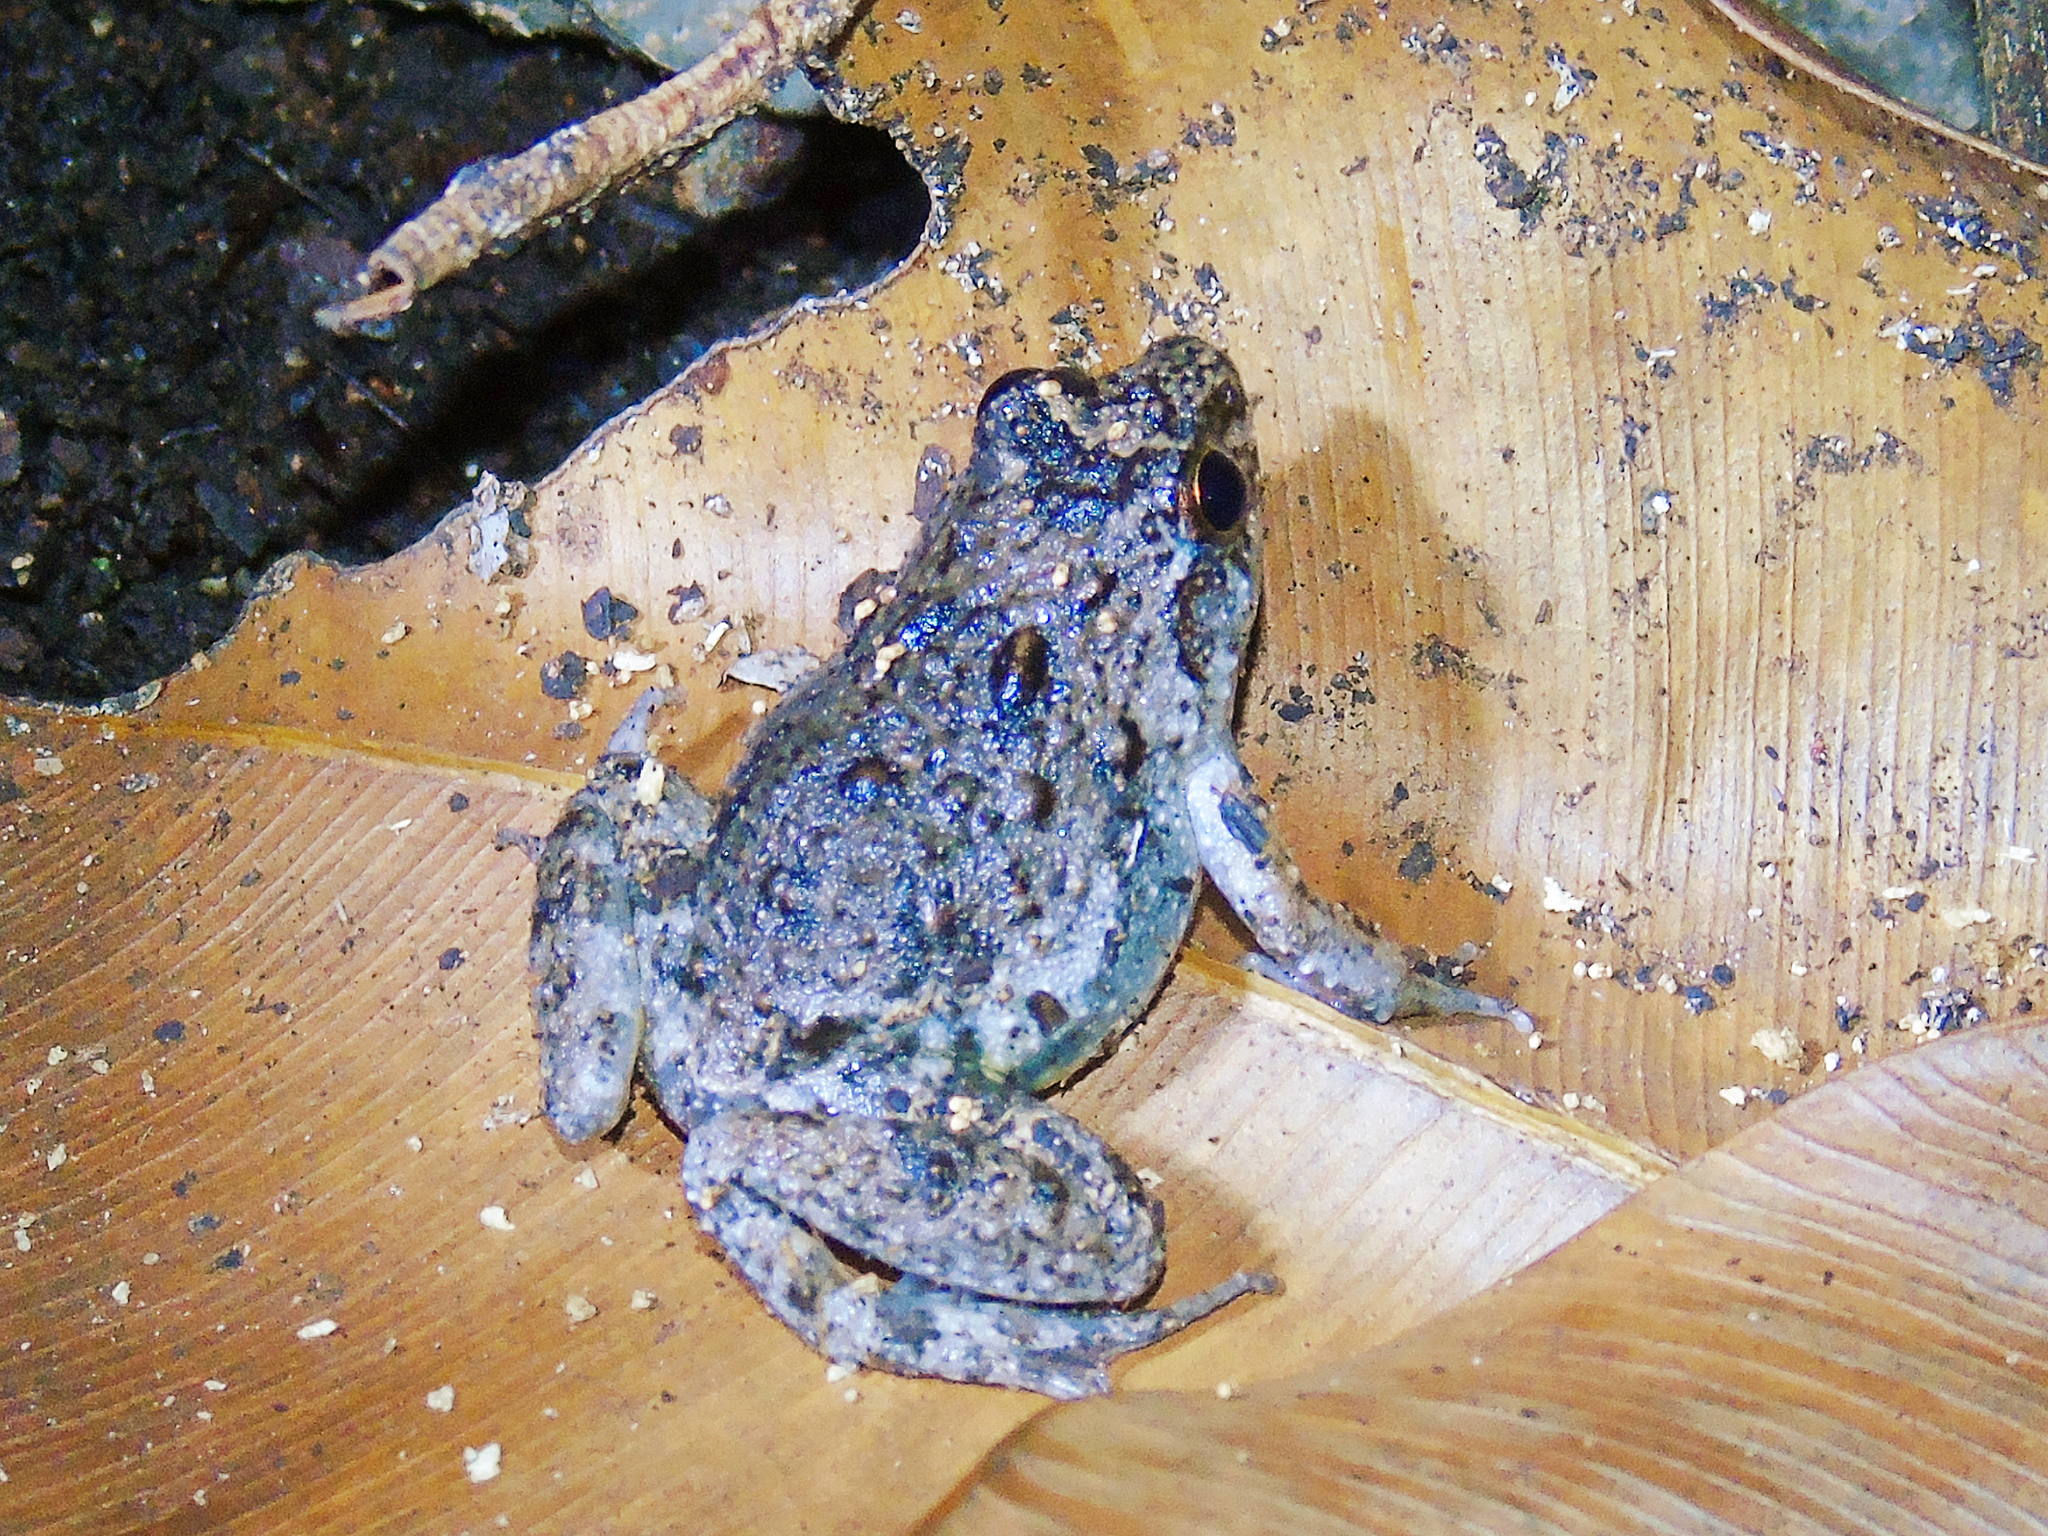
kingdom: Animalia
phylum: Chordata
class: Amphibia
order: Anura
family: Phrynobatrachidae
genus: Phrynobatrachus
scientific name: Phrynobatrachus natalensis
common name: Snoring puddle frog
